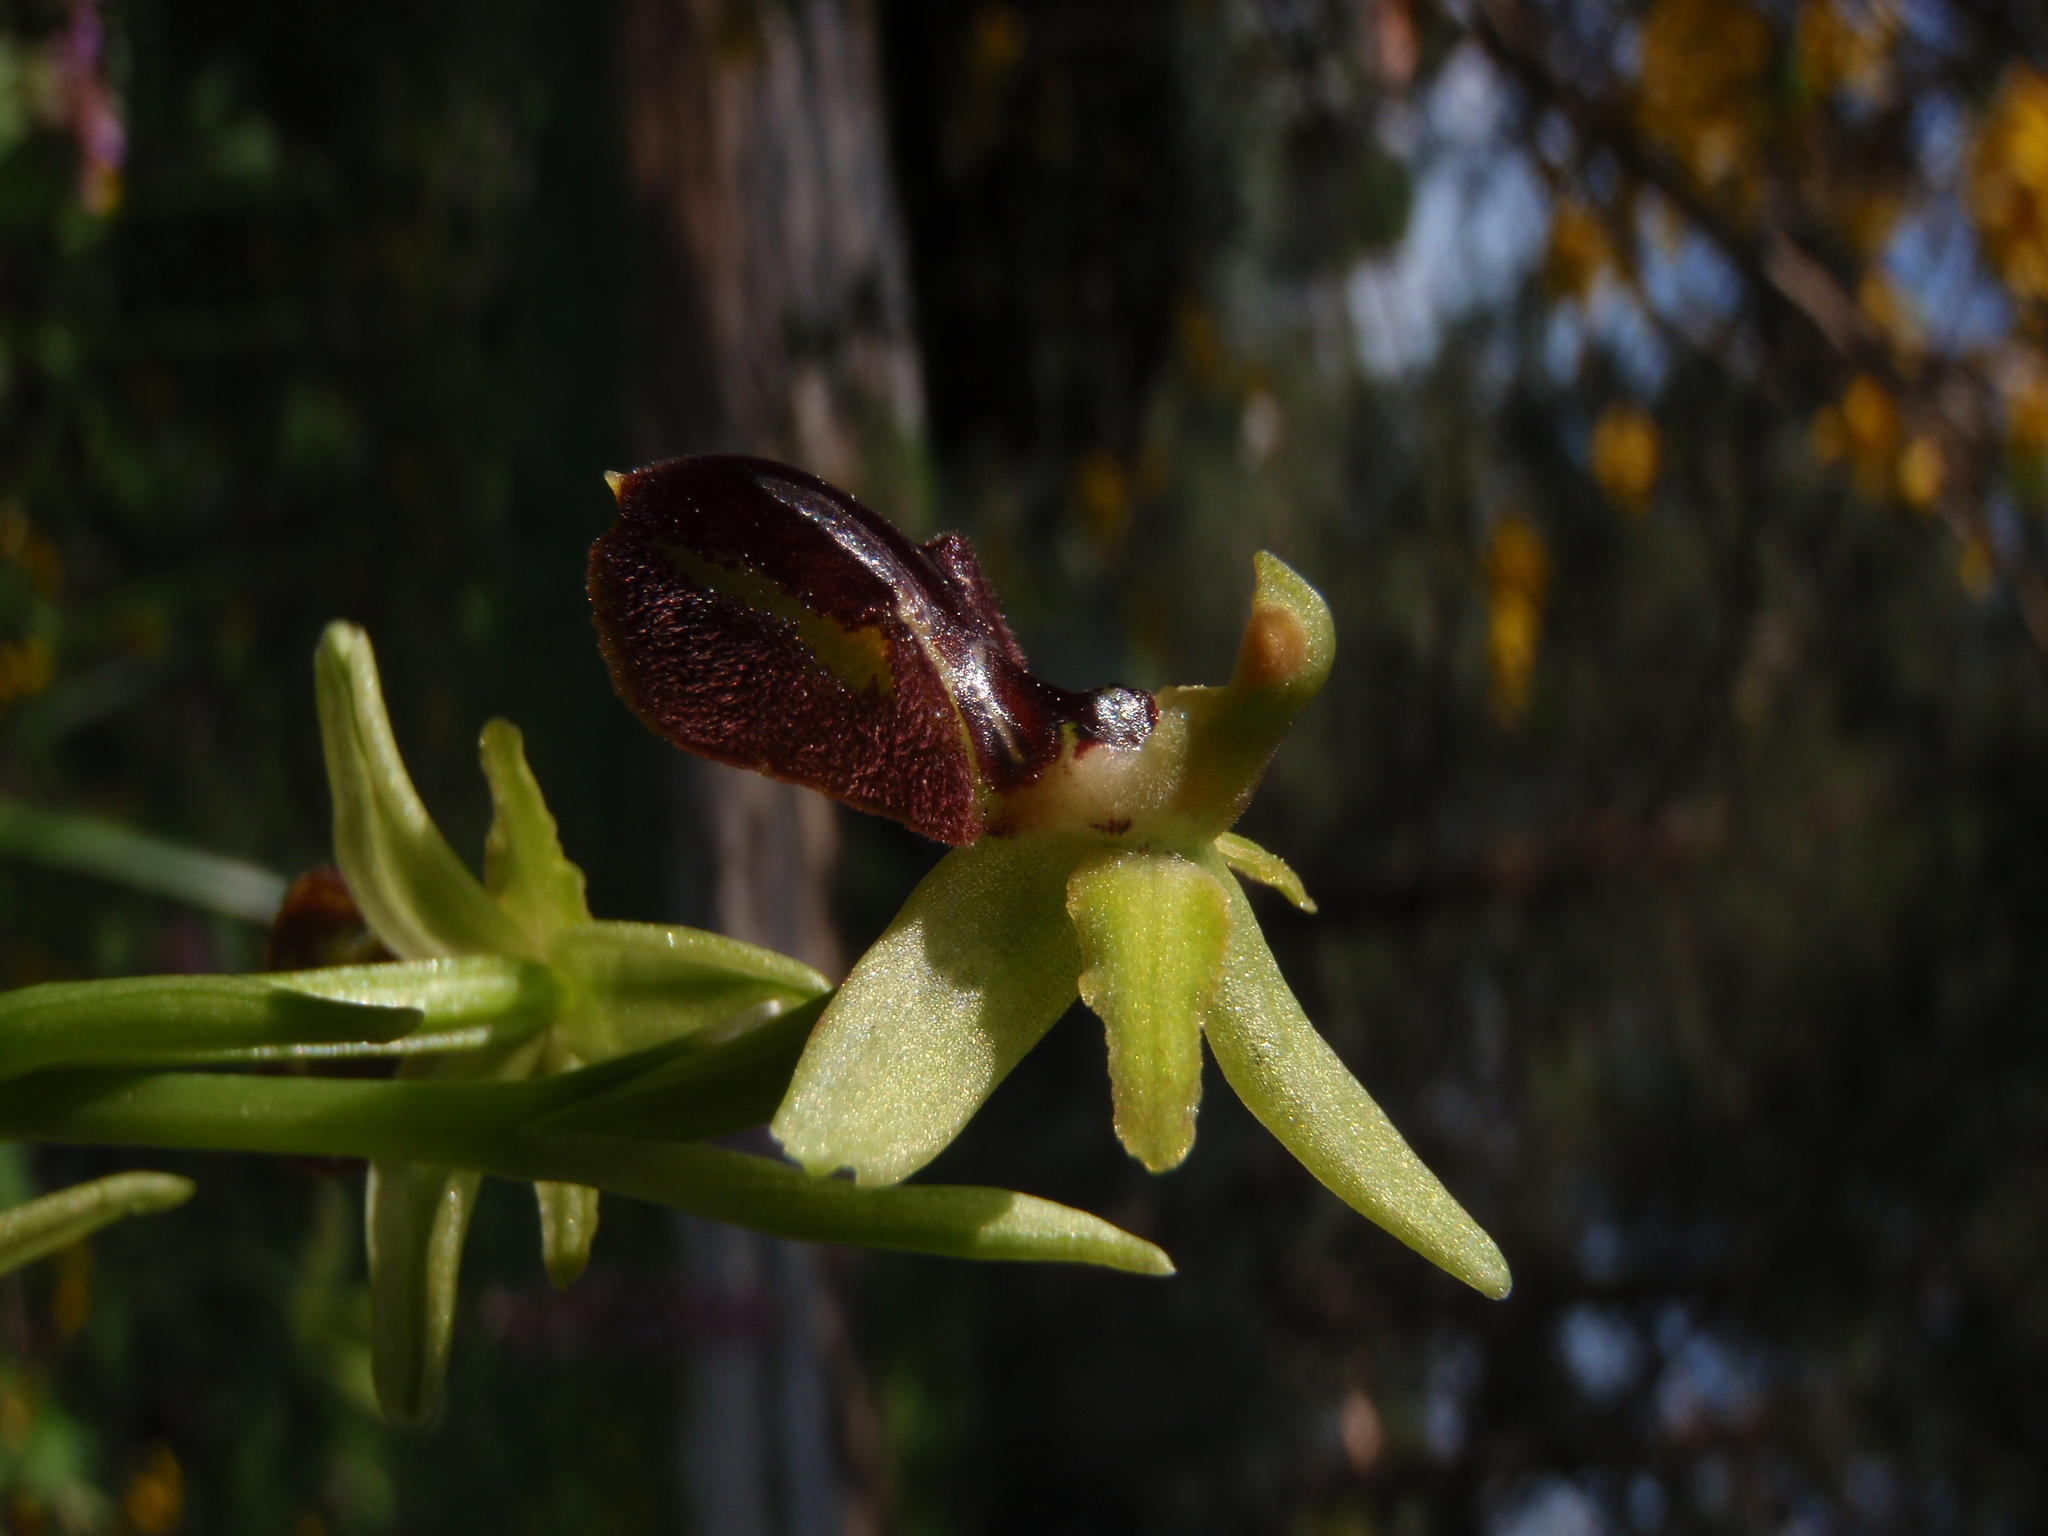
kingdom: Plantae
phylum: Tracheophyta
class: Liliopsida
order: Asparagales
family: Orchidaceae
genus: Ophrys
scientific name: Ophrys sphegodes
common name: Early spider-orchid
